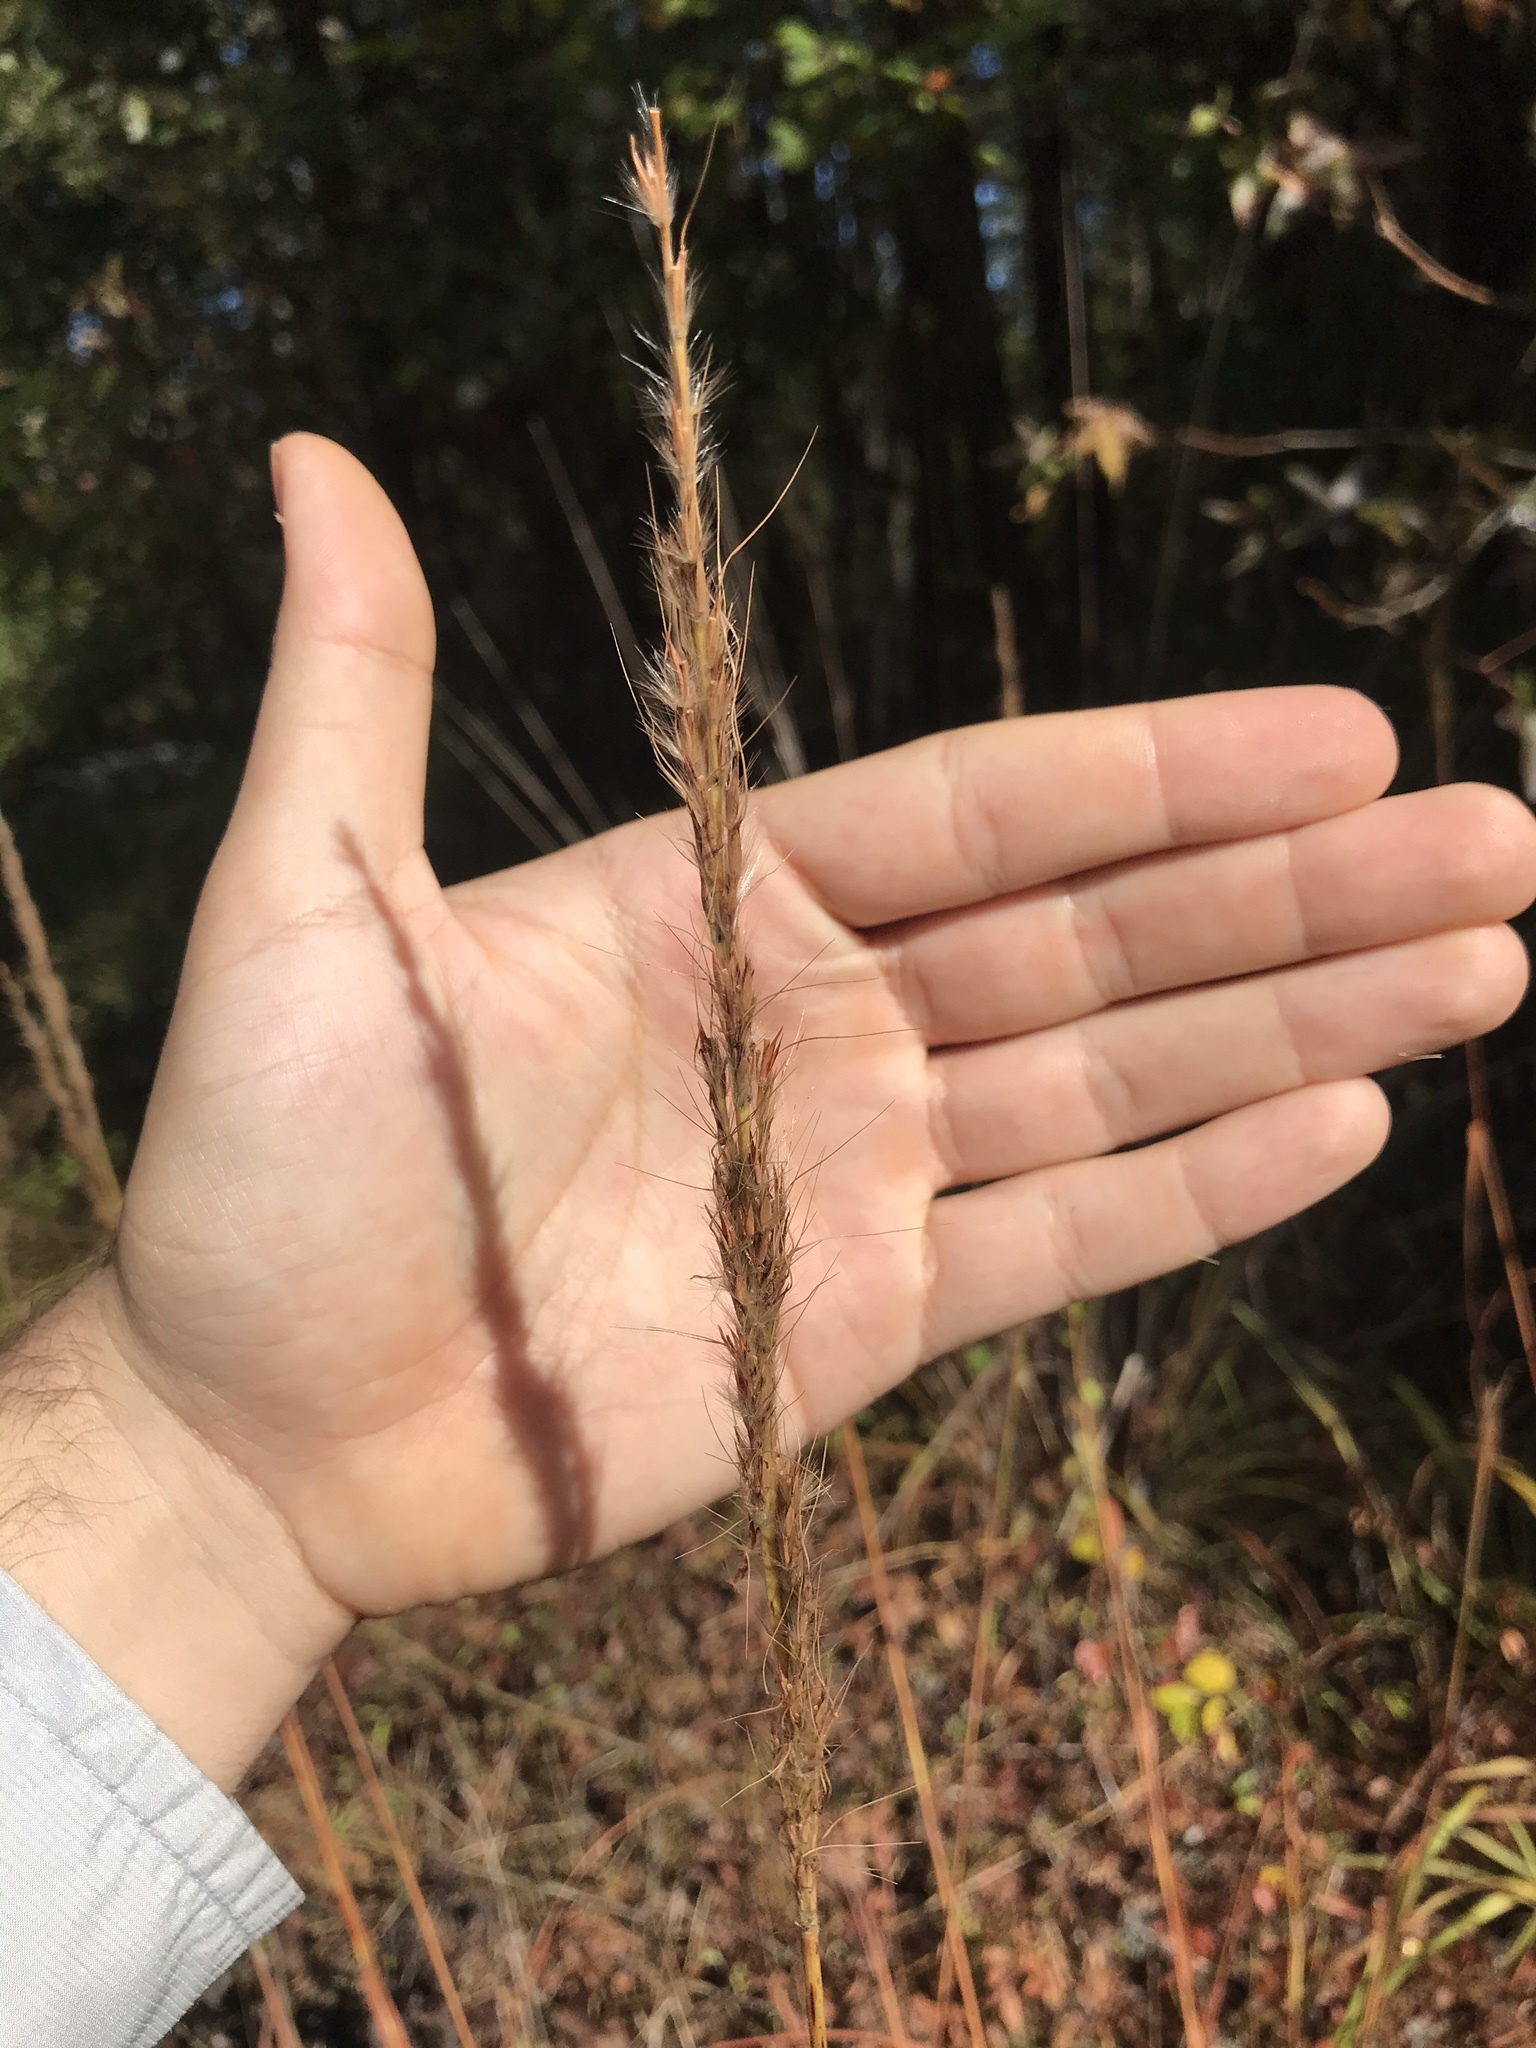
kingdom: Plantae
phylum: Tracheophyta
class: Liliopsida
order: Poales
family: Poaceae
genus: Sorghastrum
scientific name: Sorghastrum nutans
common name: Indian grass
